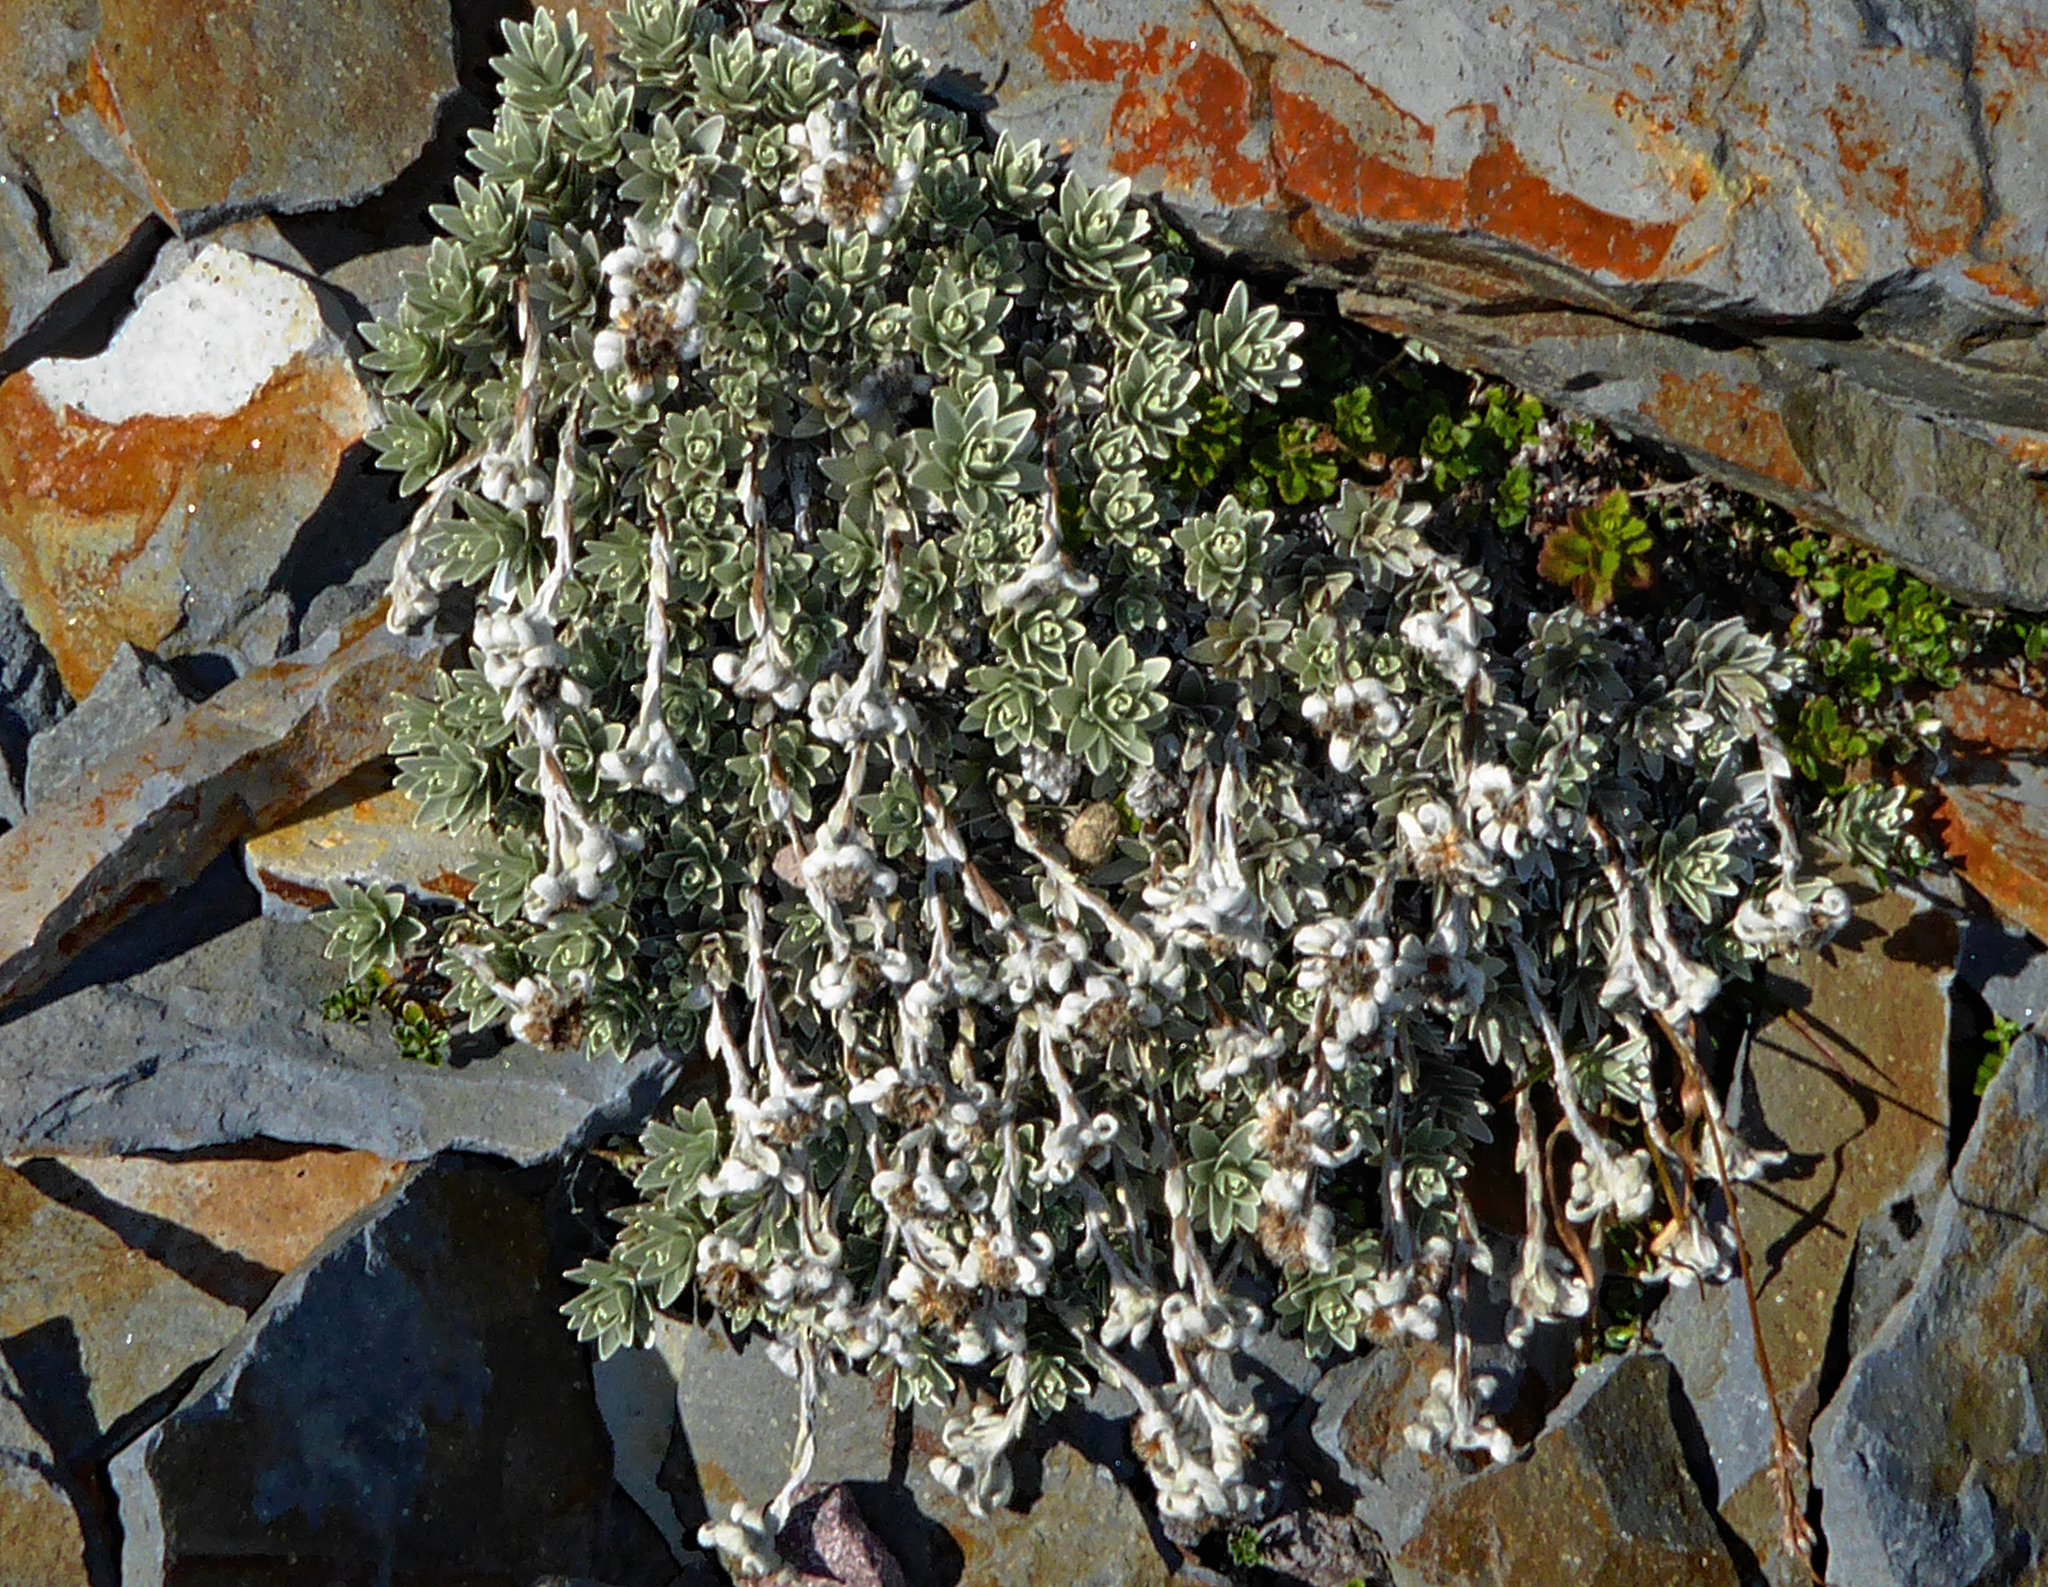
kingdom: Plantae
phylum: Tracheophyta
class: Magnoliopsida
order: Asterales
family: Asteraceae
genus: Leucogenes
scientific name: Leucogenes leontopodium
